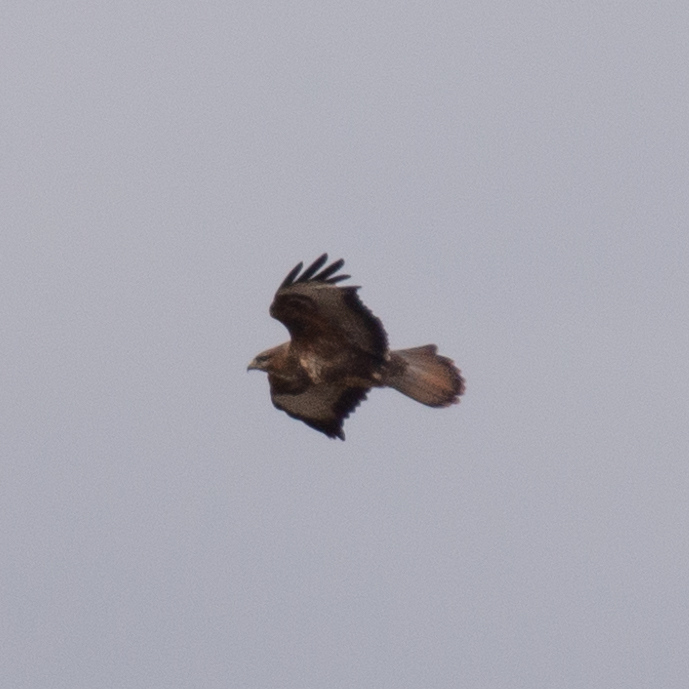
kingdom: Animalia
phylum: Chordata
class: Aves
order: Accipitriformes
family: Accipitridae
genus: Buteo
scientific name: Buteo buteo
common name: Common buzzard
